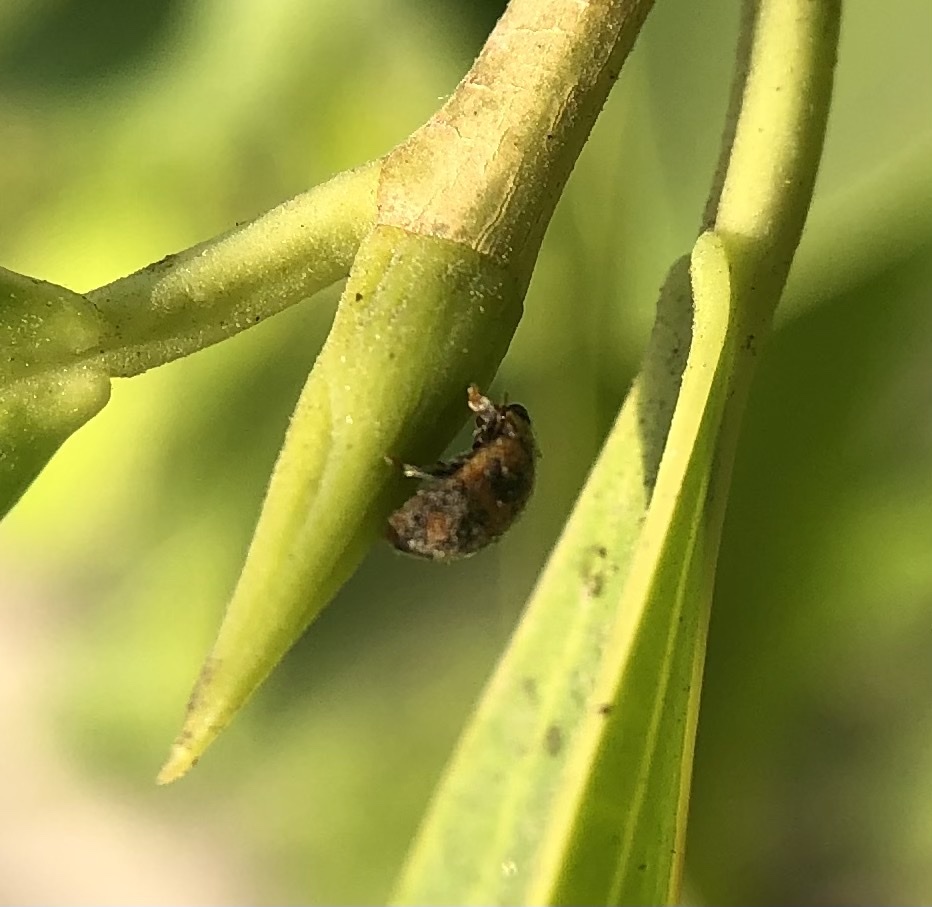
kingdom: Animalia
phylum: Arthropoda
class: Insecta
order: Coleoptera
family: Coccinellidae
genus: Novius
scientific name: Novius cardinalis
